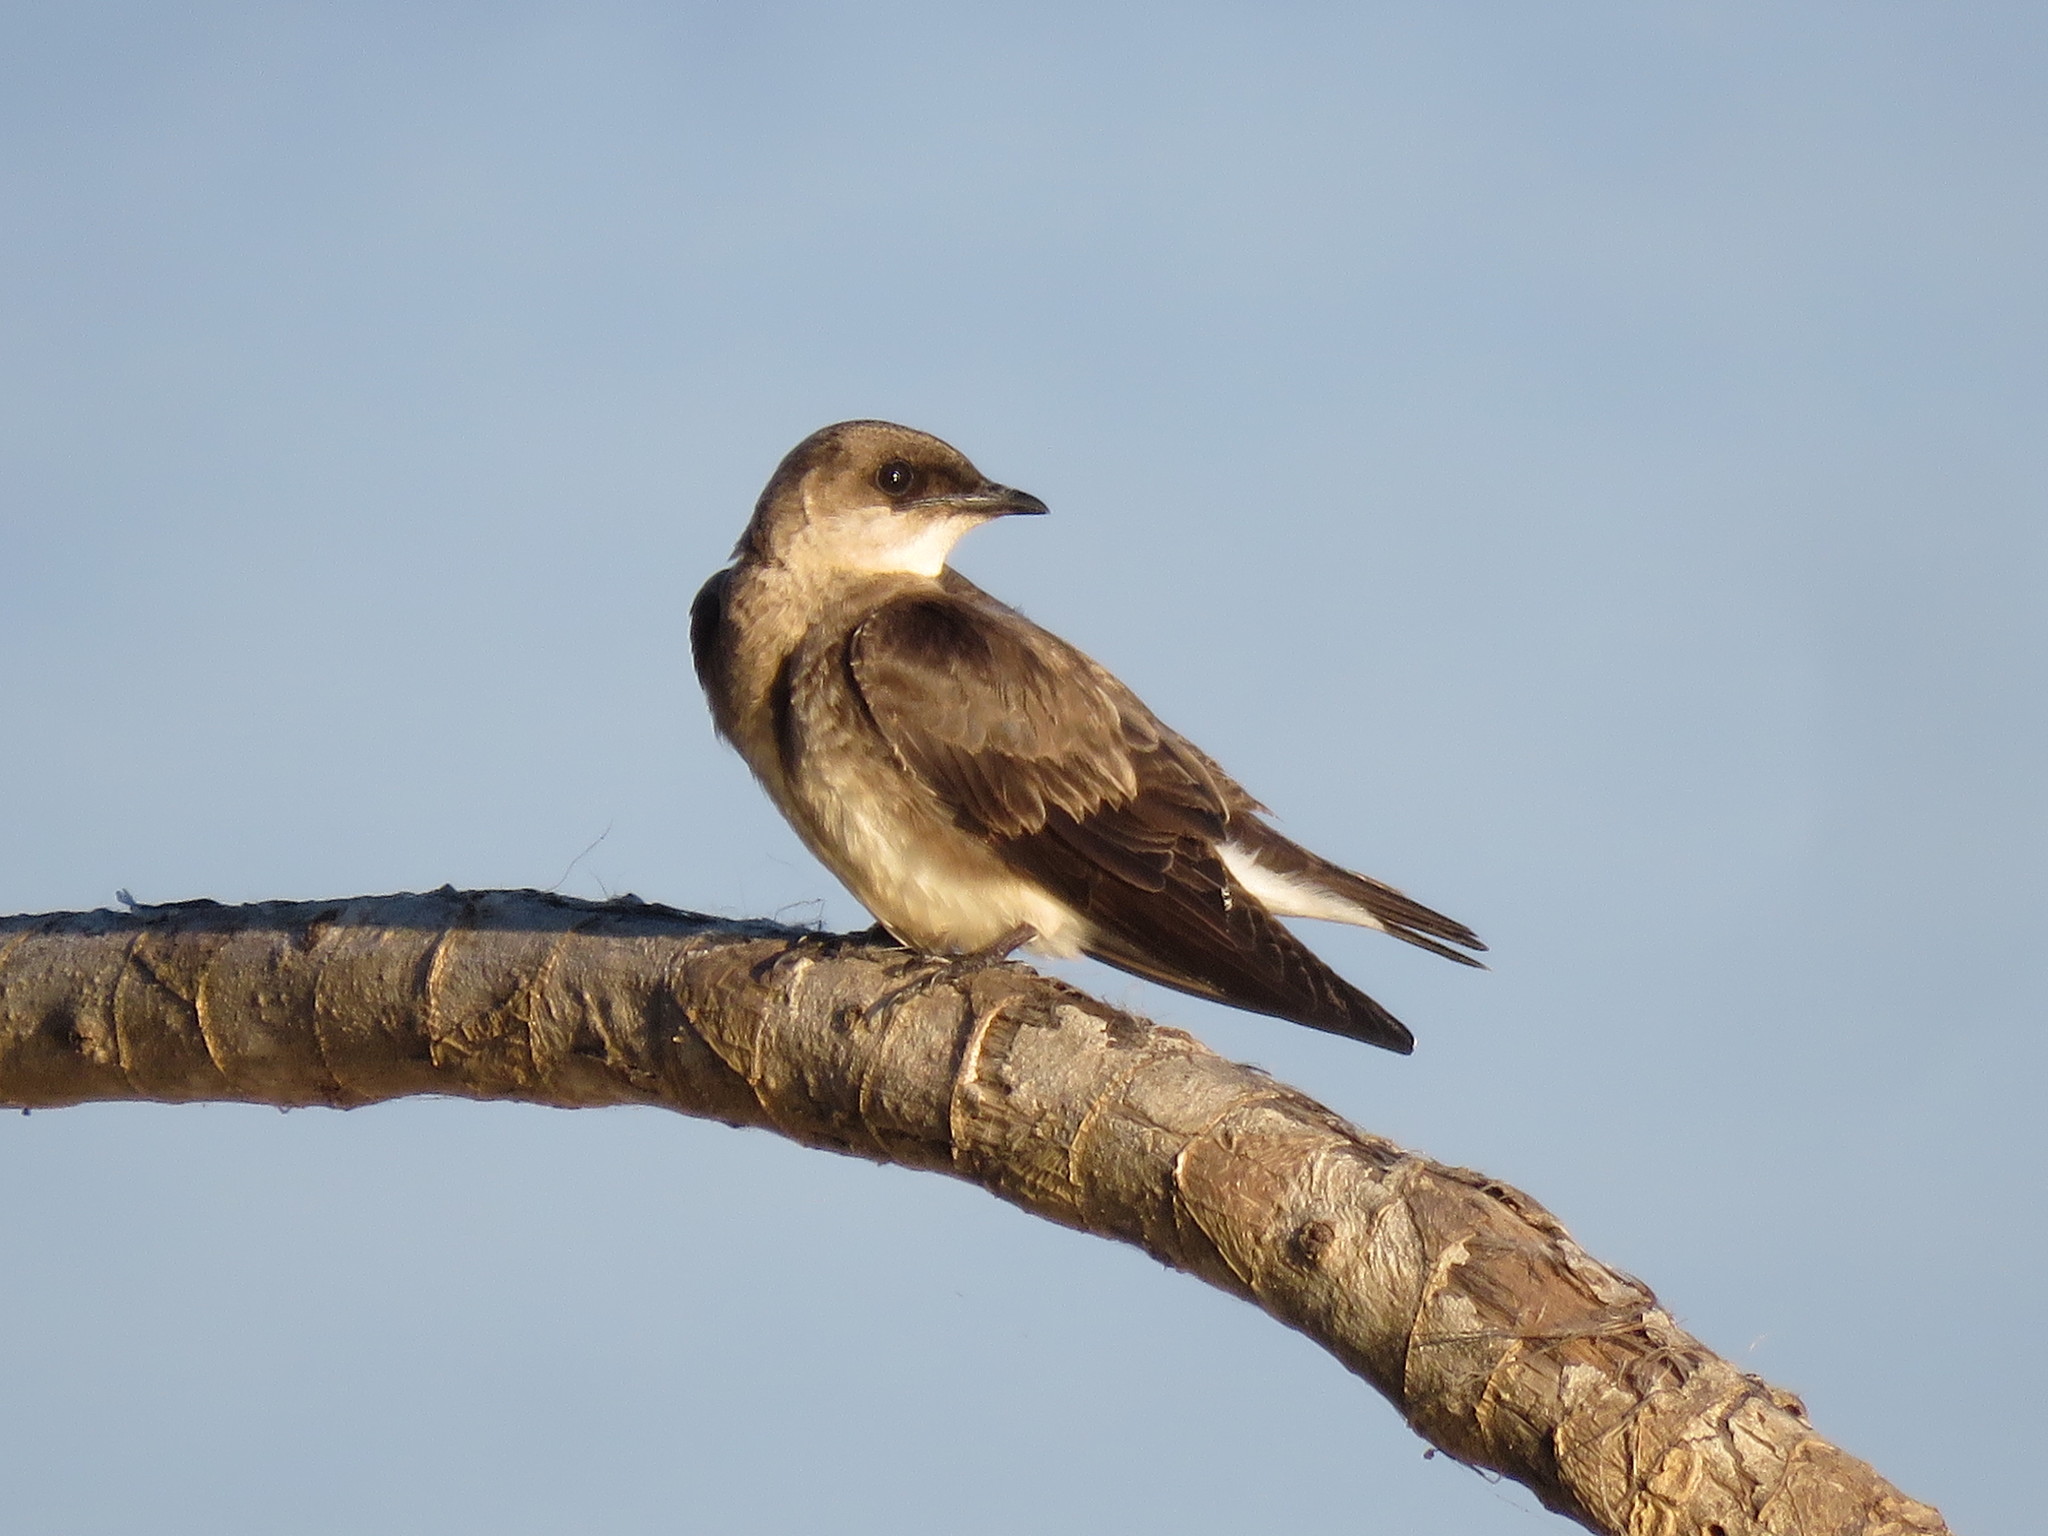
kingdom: Animalia
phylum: Chordata
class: Aves
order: Passeriformes
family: Hirundinidae
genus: Progne
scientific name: Progne tapera
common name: Brown-chested martin
